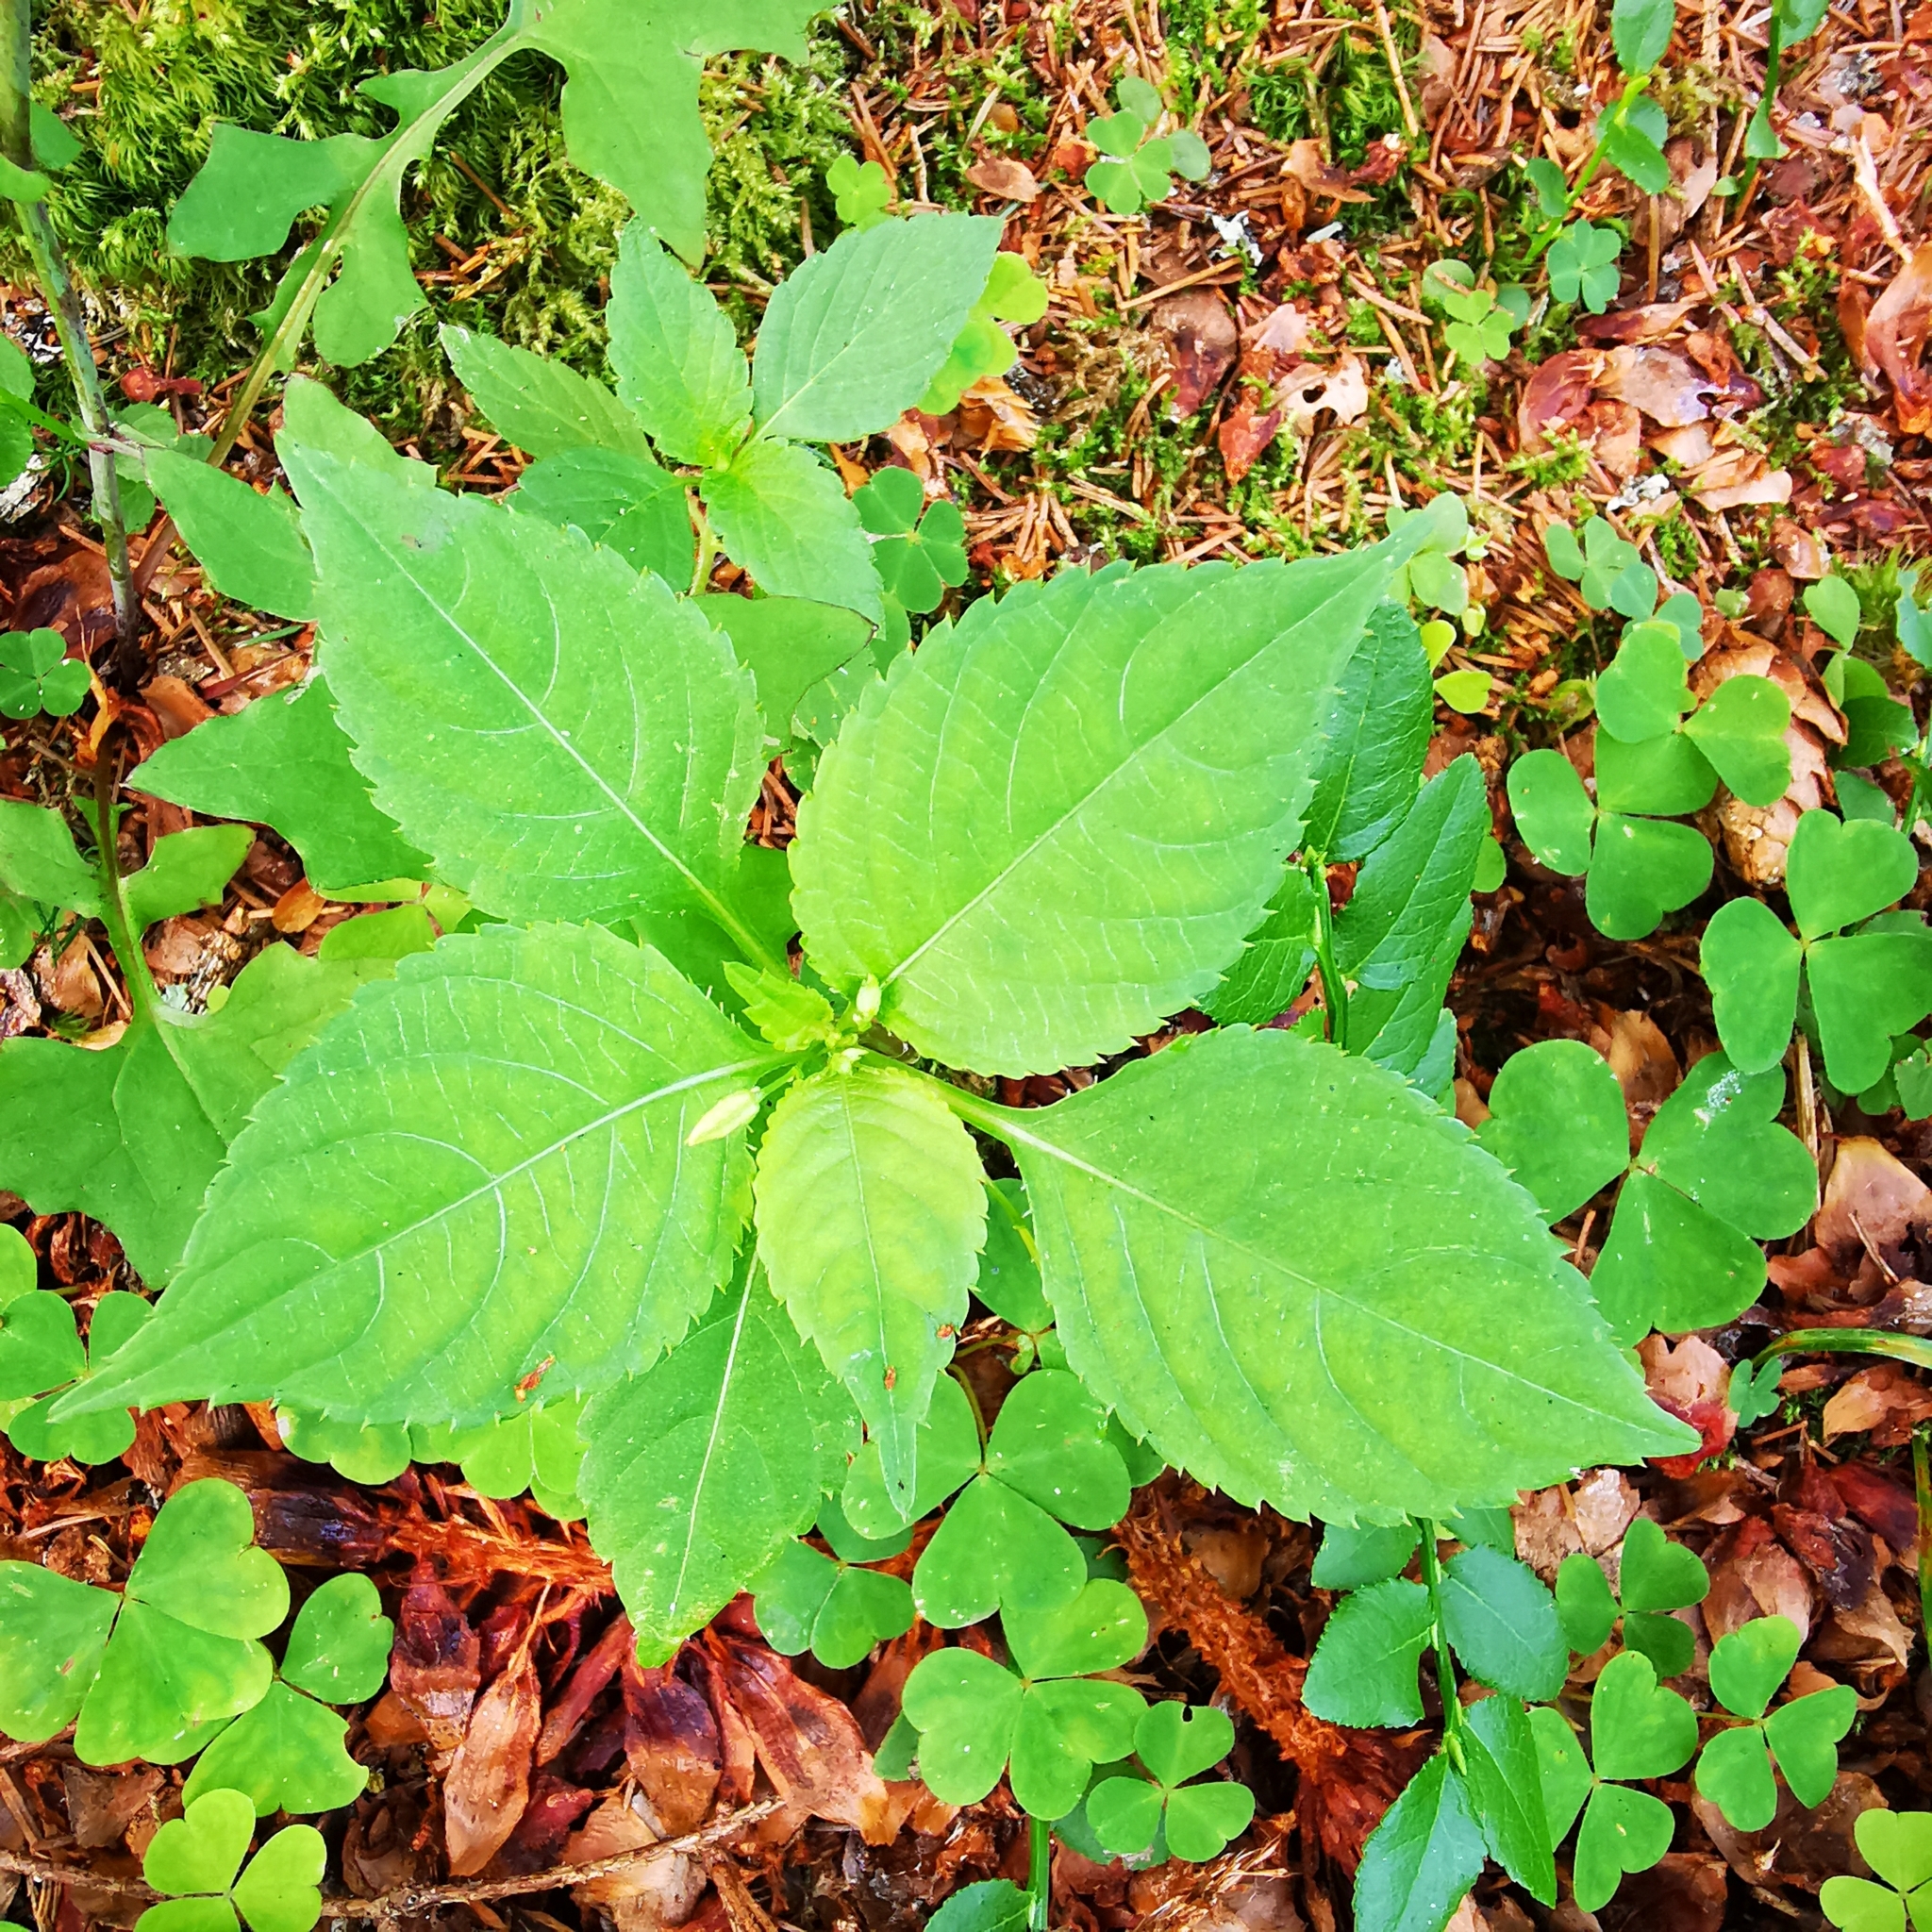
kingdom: Plantae
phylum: Tracheophyta
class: Magnoliopsida
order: Ericales
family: Balsaminaceae
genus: Impatiens
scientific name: Impatiens parviflora
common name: Small balsam
